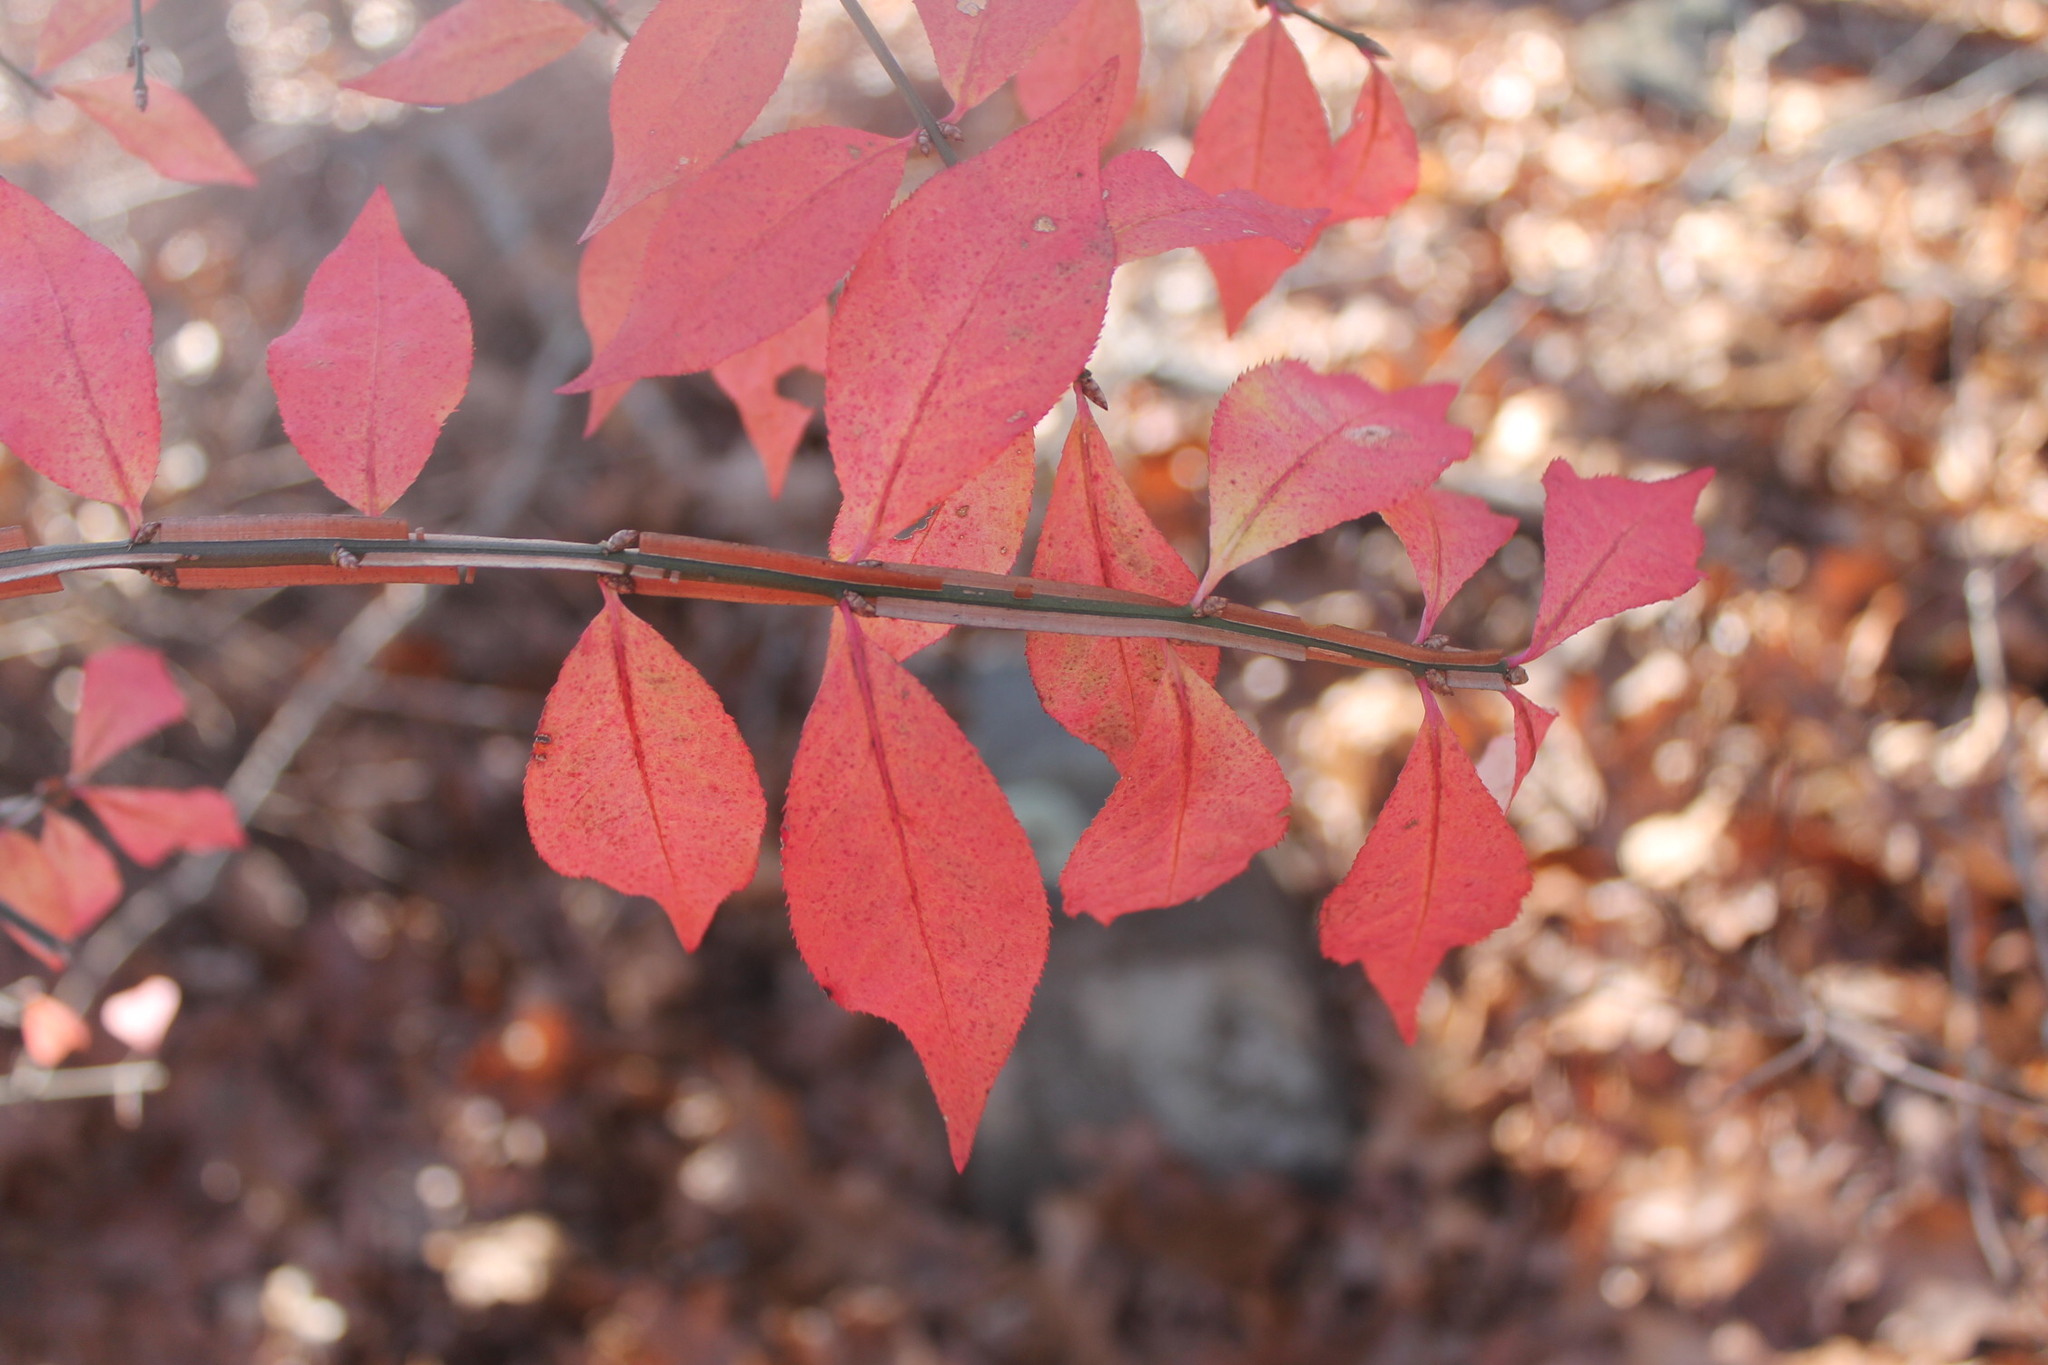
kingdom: Plantae
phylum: Tracheophyta
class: Magnoliopsida
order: Celastrales
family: Celastraceae
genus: Euonymus
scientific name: Euonymus alatus
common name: Winged euonymus
